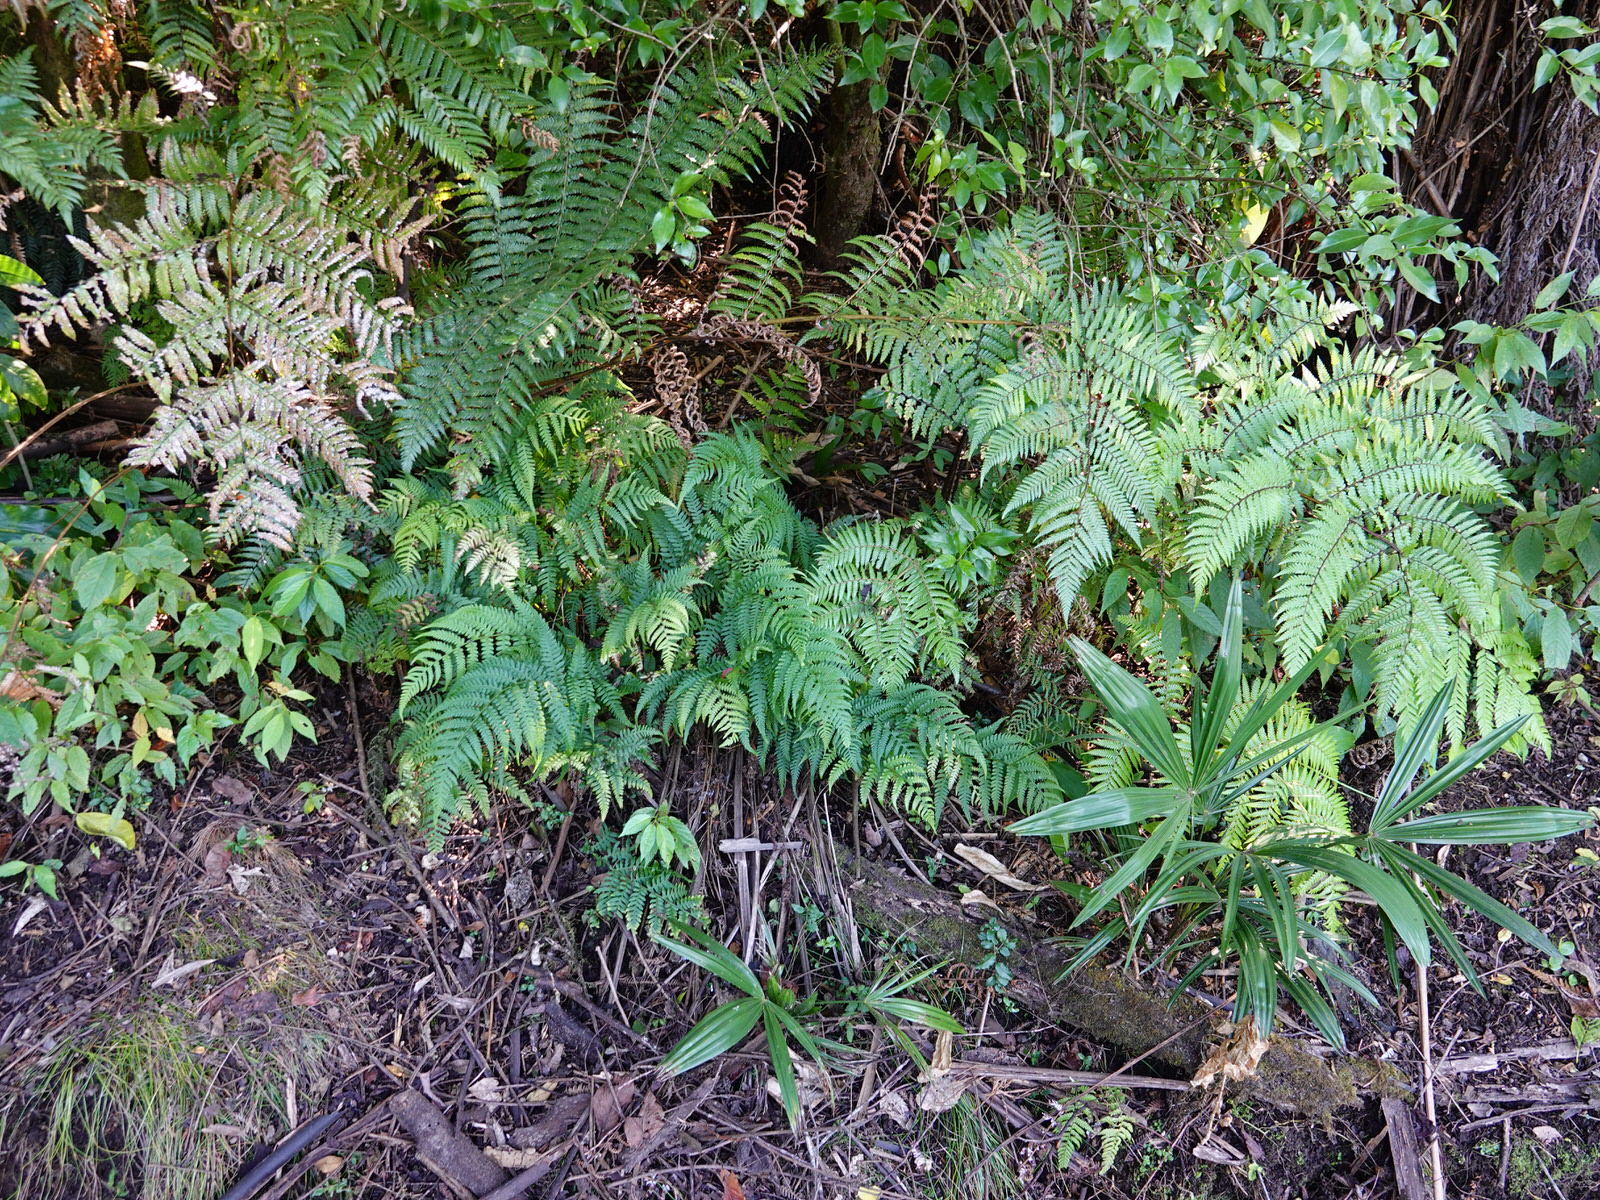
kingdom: Plantae
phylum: Tracheophyta
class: Polypodiopsida
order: Polypodiales
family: Athyriaceae
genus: Diplazium
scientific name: Diplazium congruum
